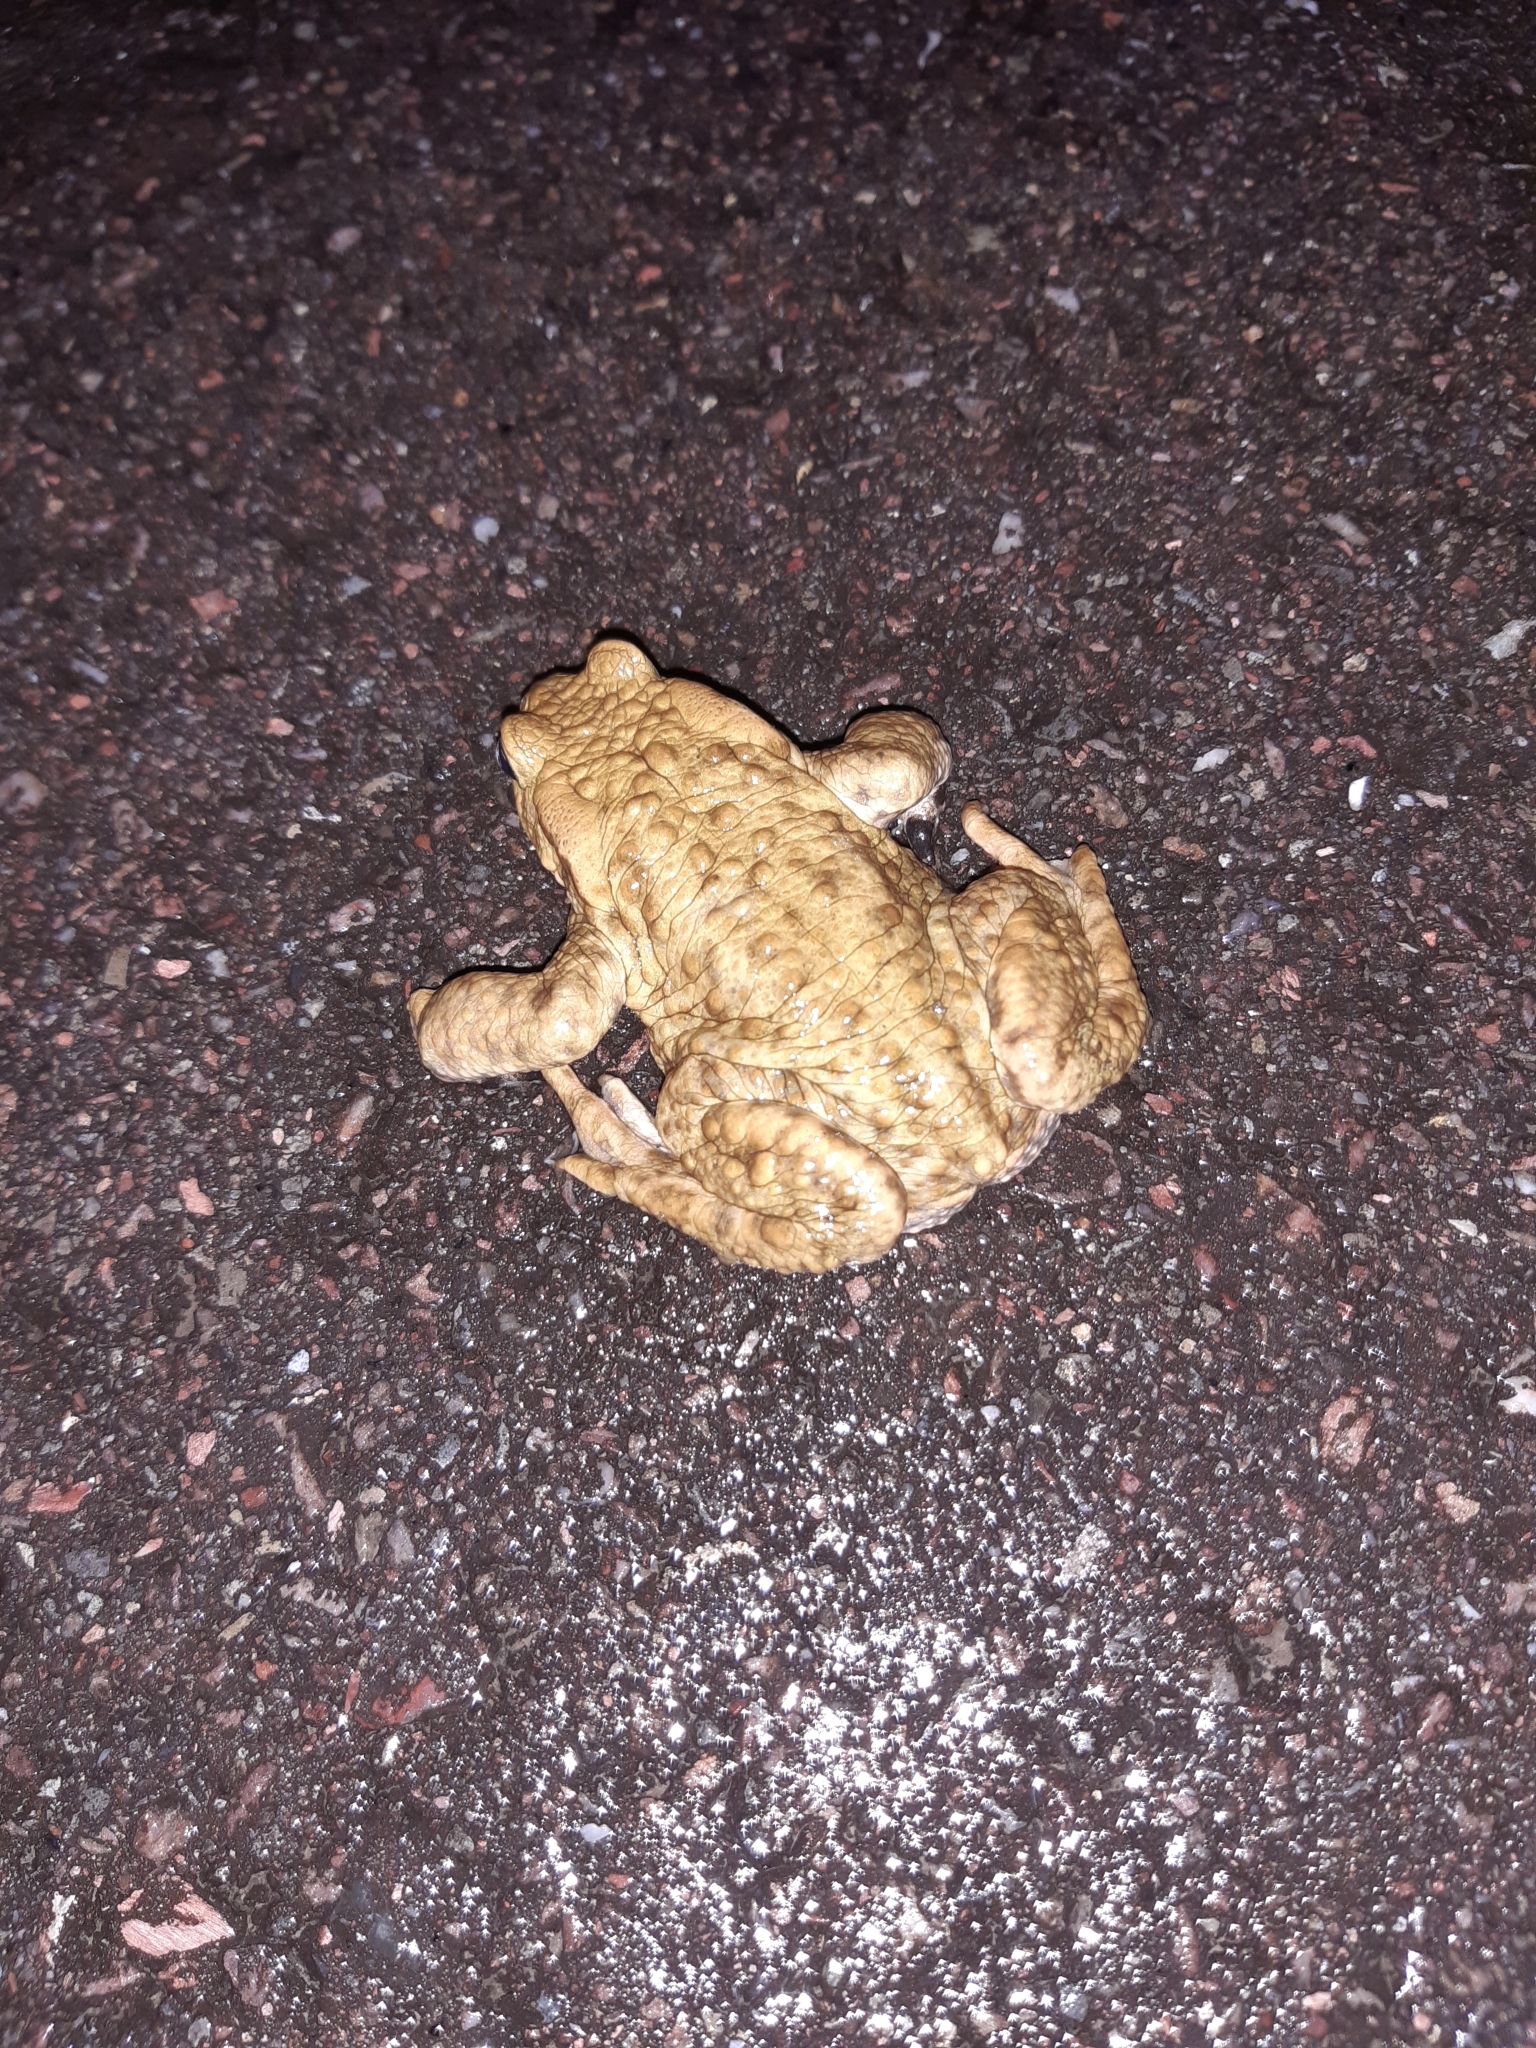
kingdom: Animalia
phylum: Chordata
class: Amphibia
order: Anura
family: Bufonidae
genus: Bufo
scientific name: Bufo bufo
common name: Common toad
